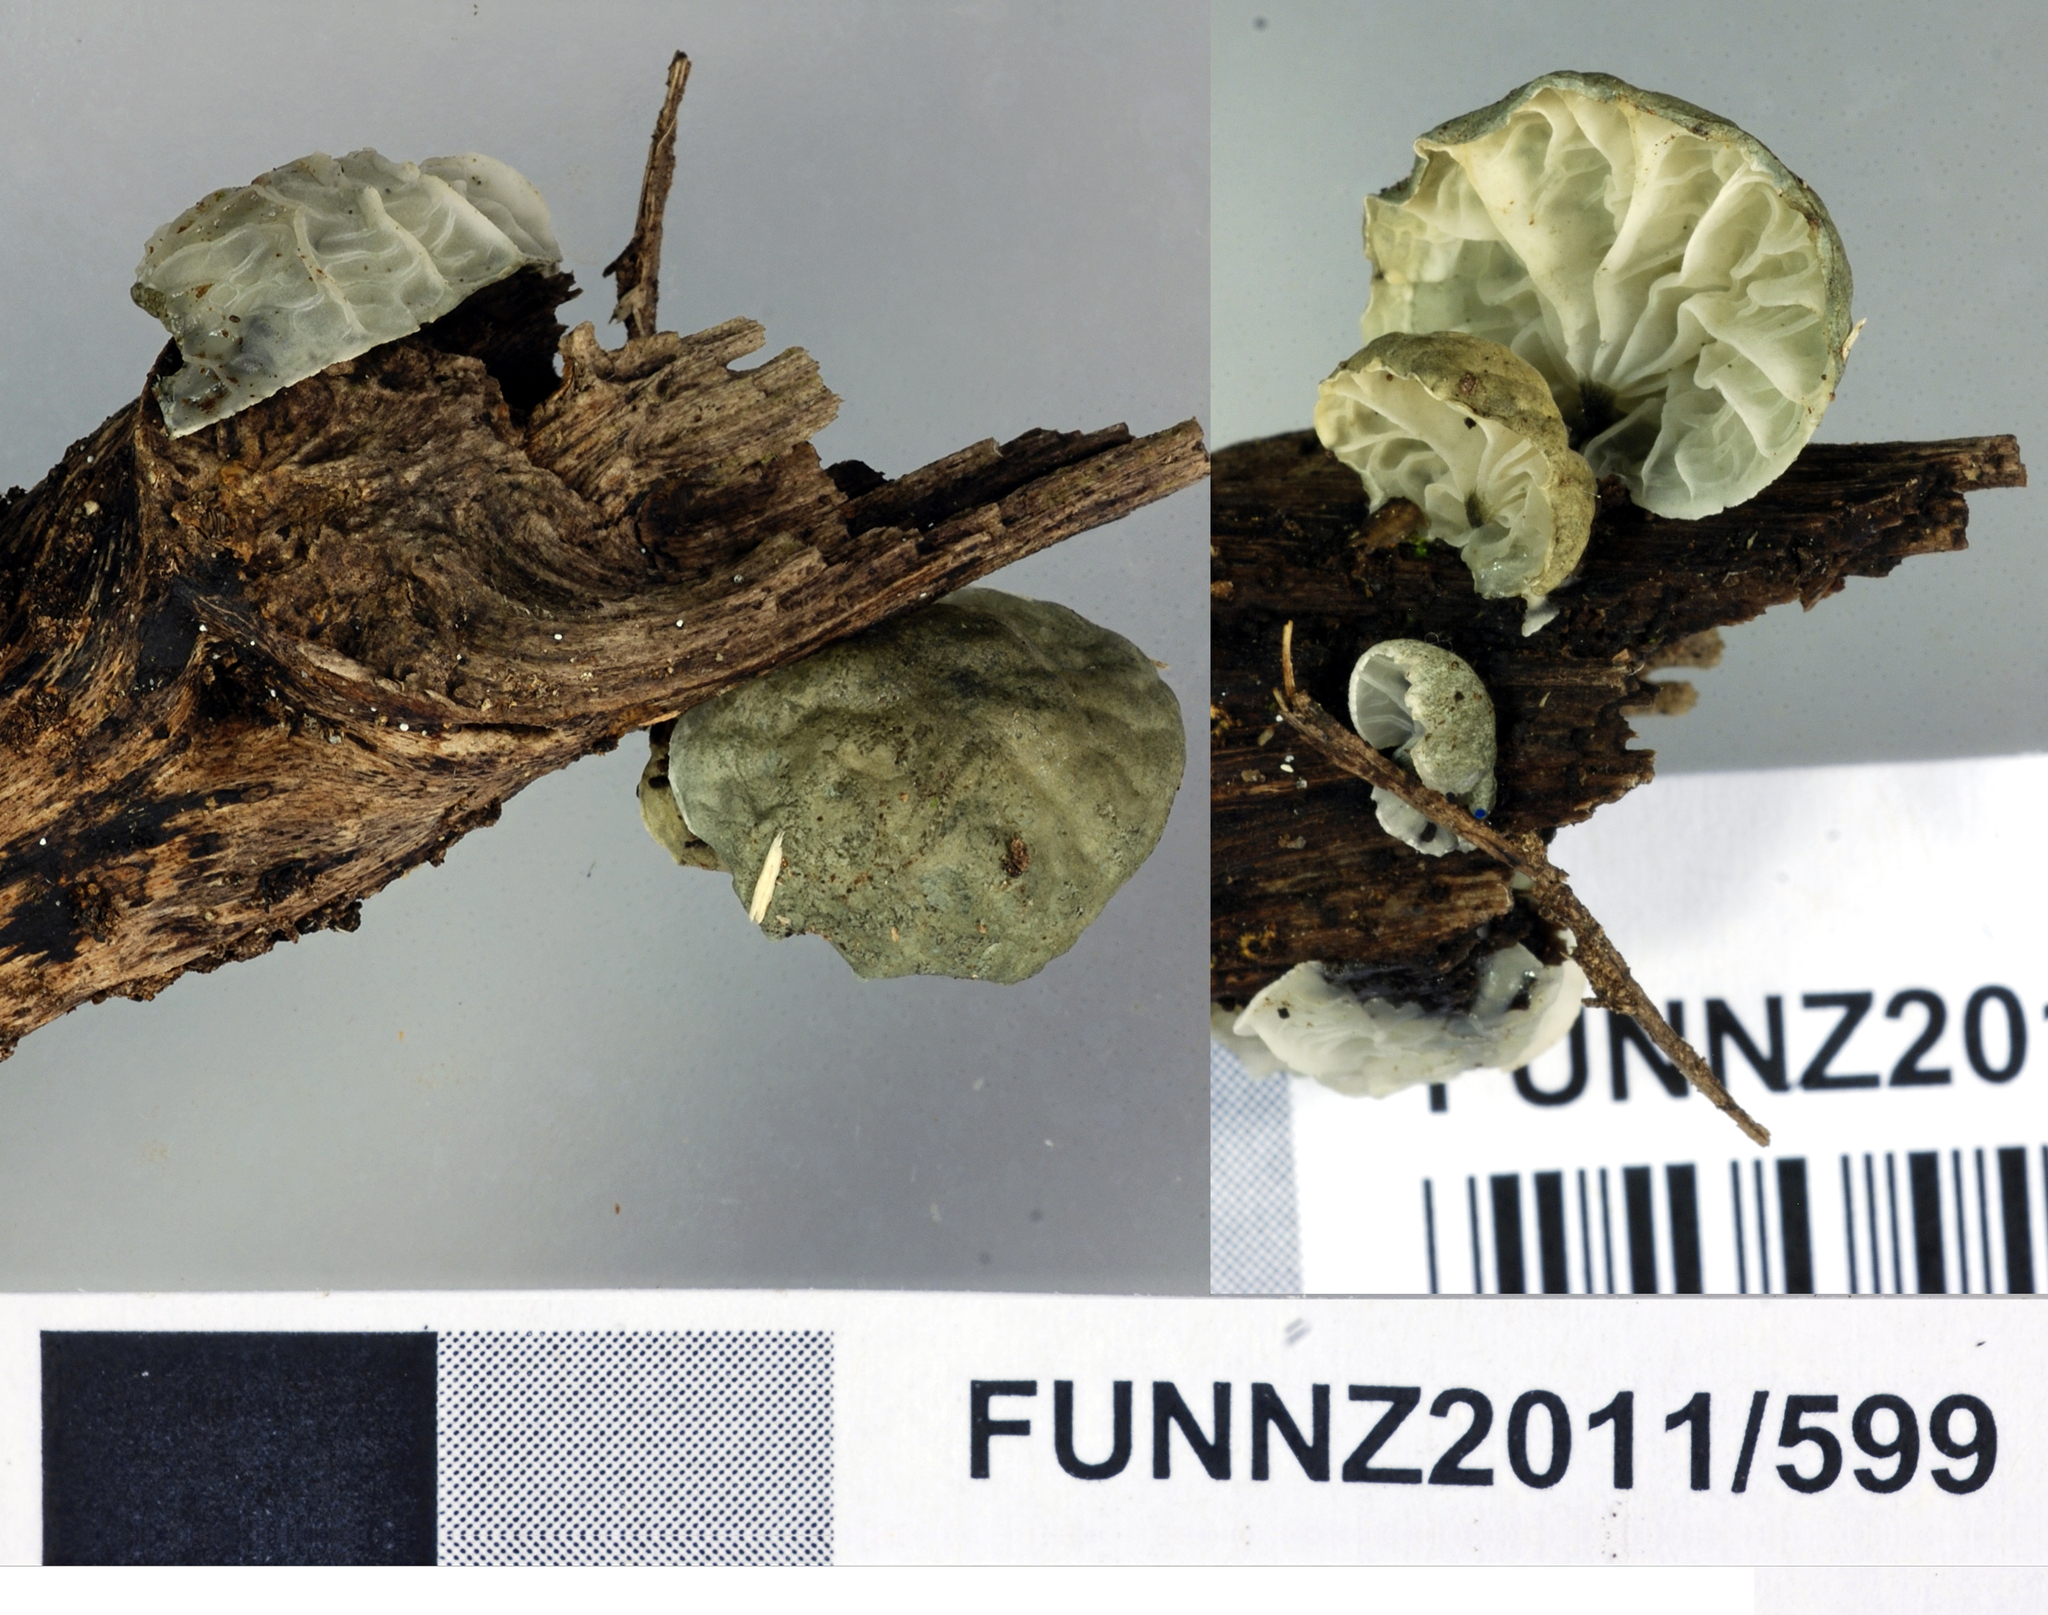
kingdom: Fungi
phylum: Basidiomycota
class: Agaricomycetes
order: Agaricales
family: Marasmiaceae
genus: Campanella
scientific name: Campanella tristis
